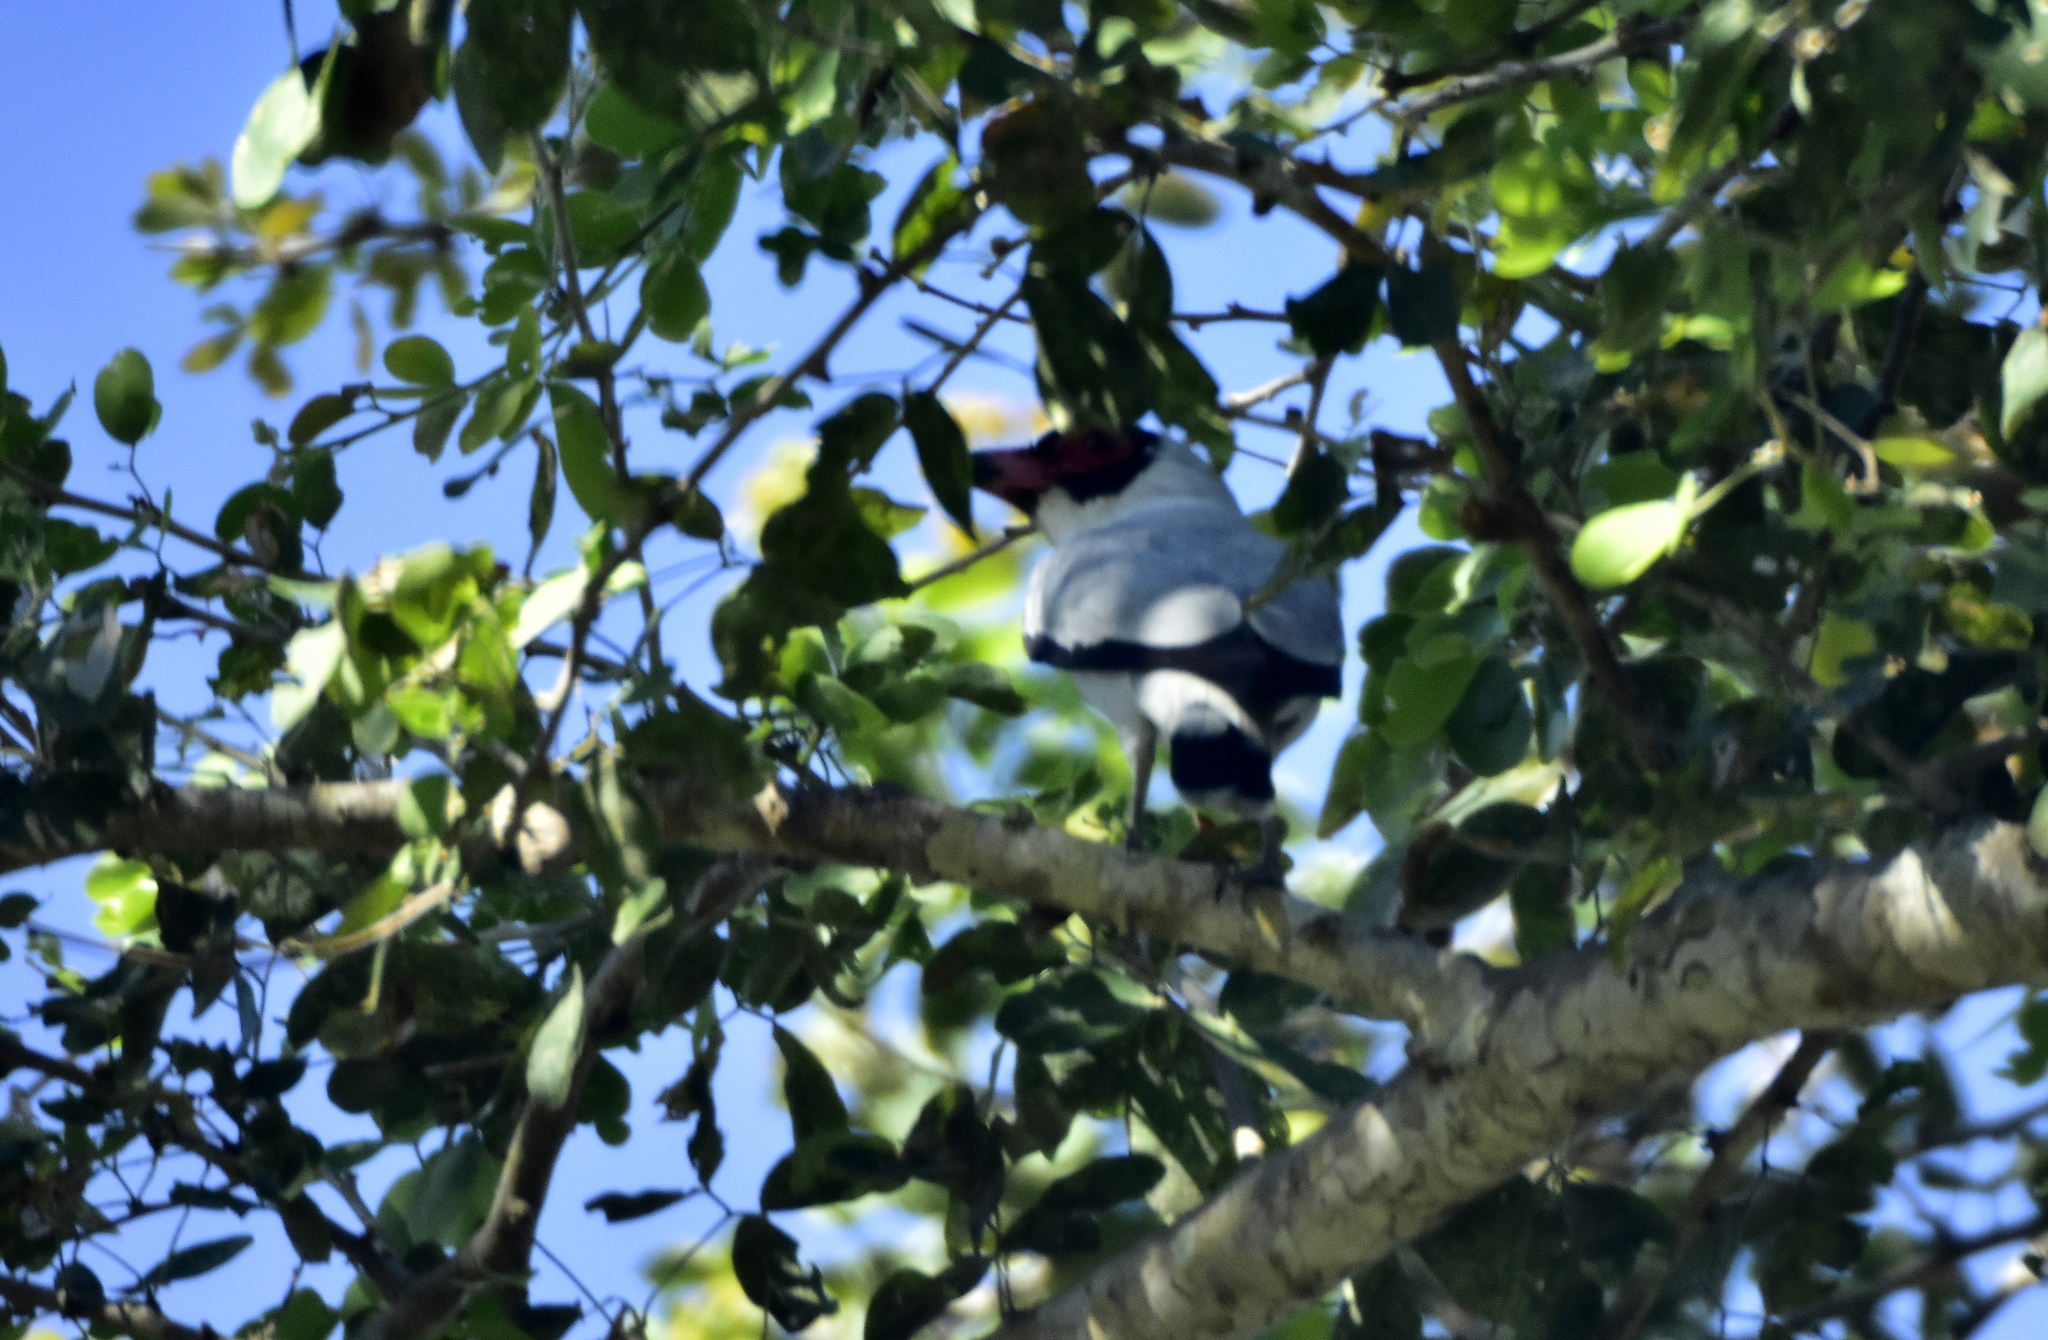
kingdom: Animalia
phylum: Chordata
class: Aves
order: Passeriformes
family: Cotingidae
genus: Tityra
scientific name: Tityra semifasciata
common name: Masked tityra
